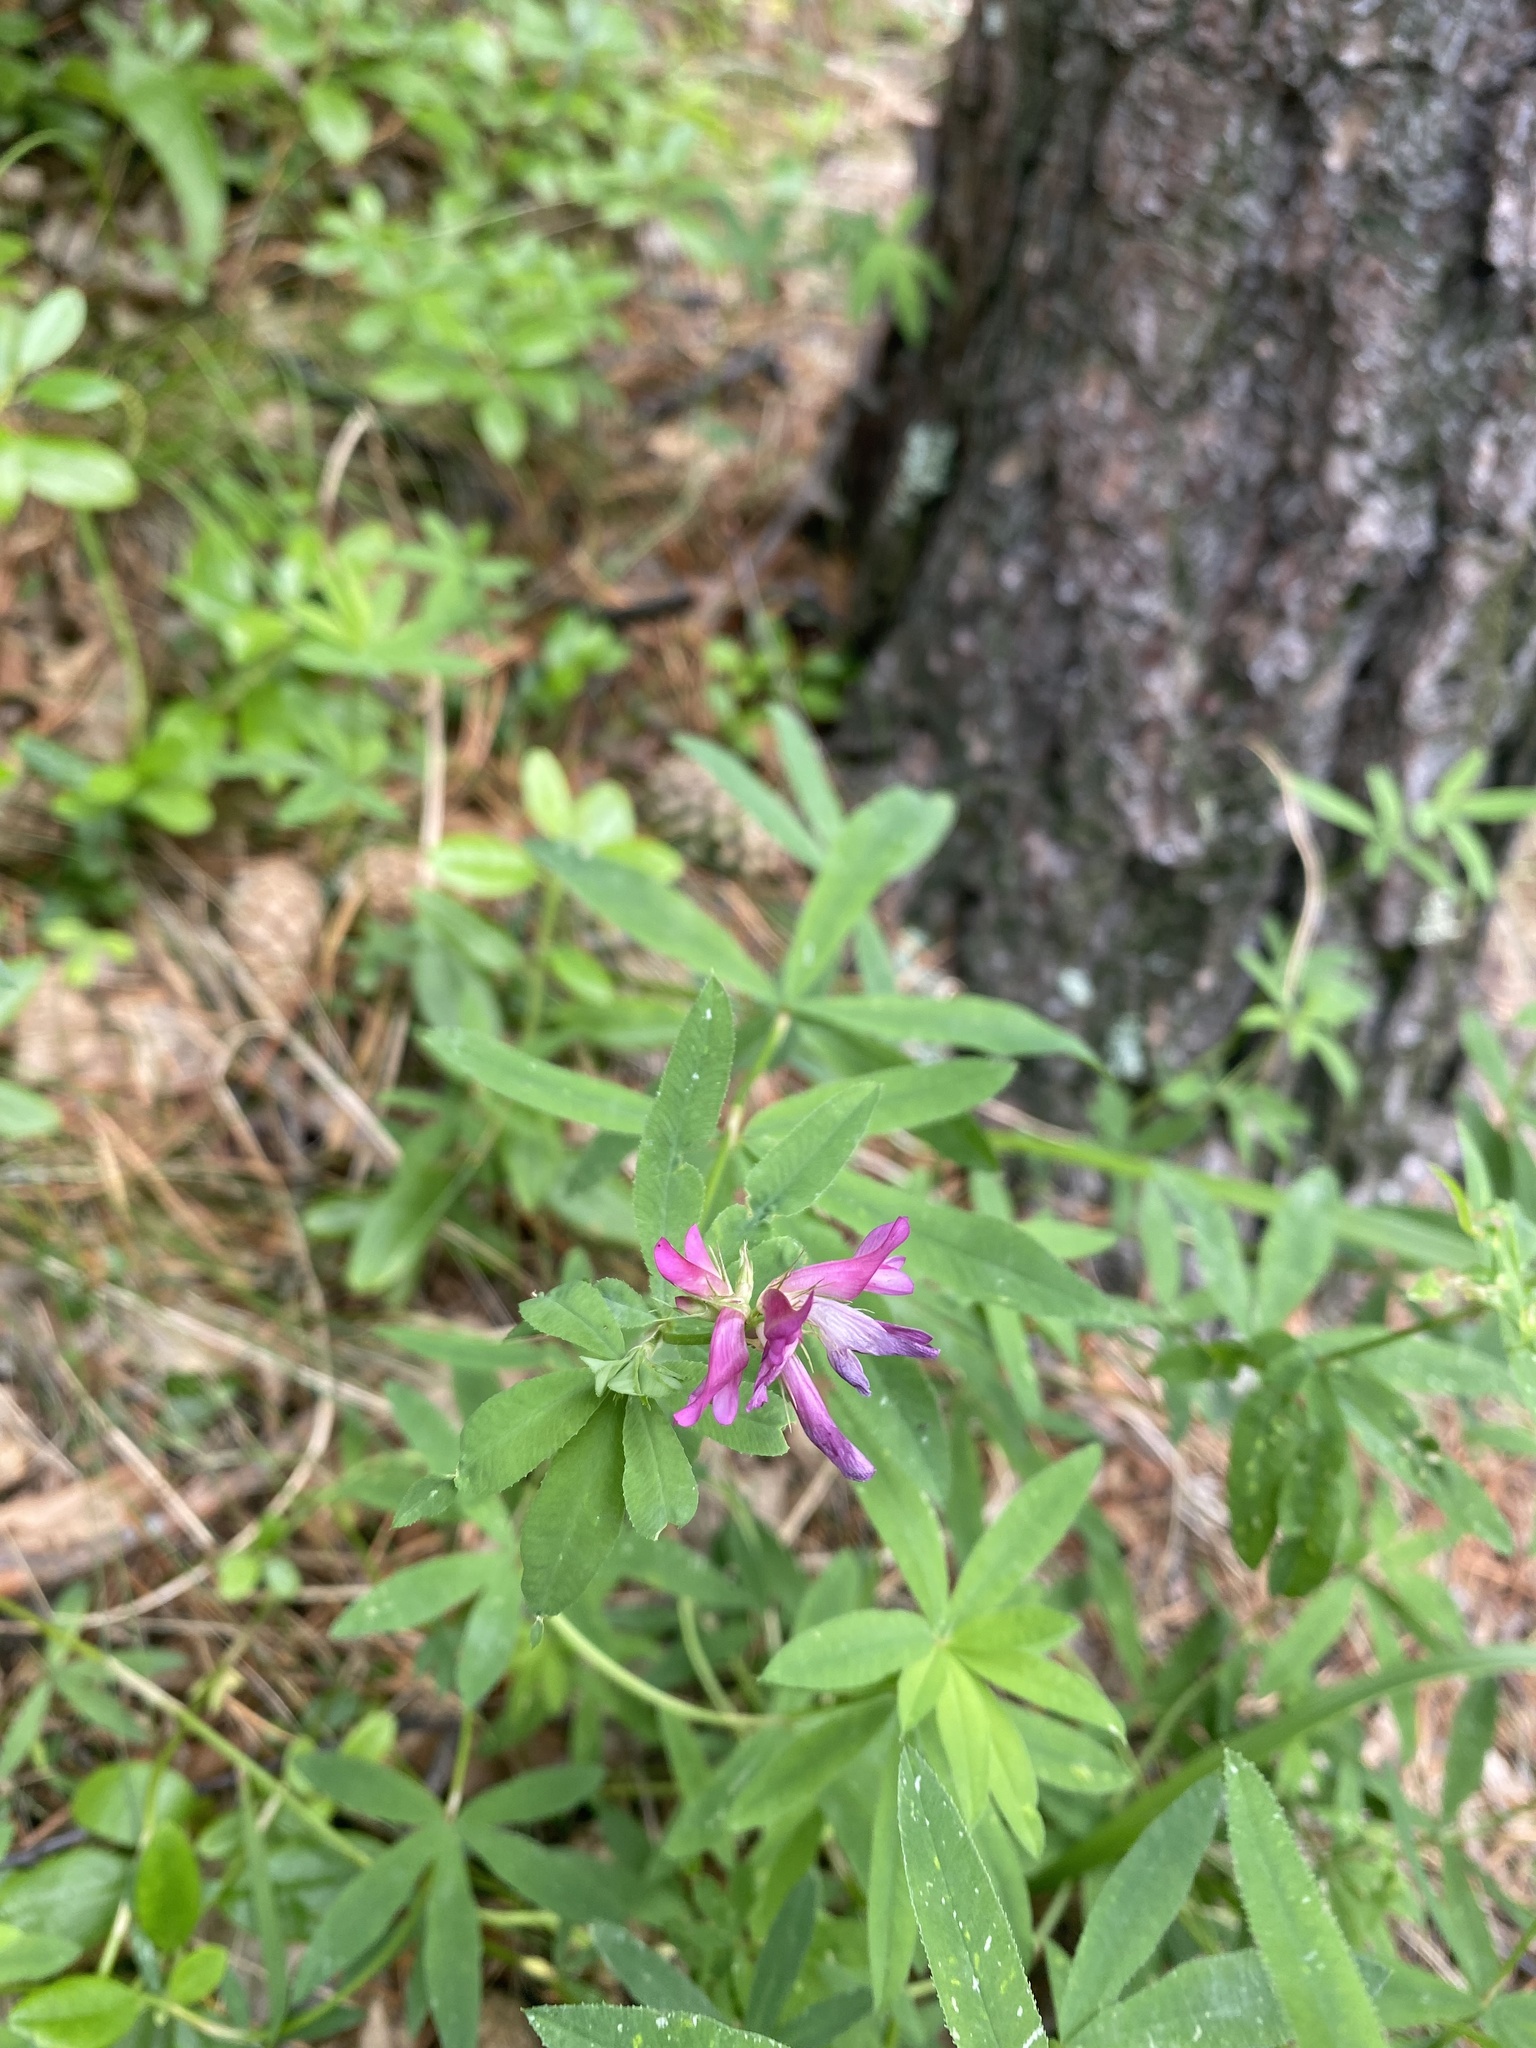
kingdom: Plantae
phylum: Tracheophyta
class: Magnoliopsida
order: Fabales
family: Fabaceae
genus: Trifolium
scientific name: Trifolium lupinaster
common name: Lupine clover
